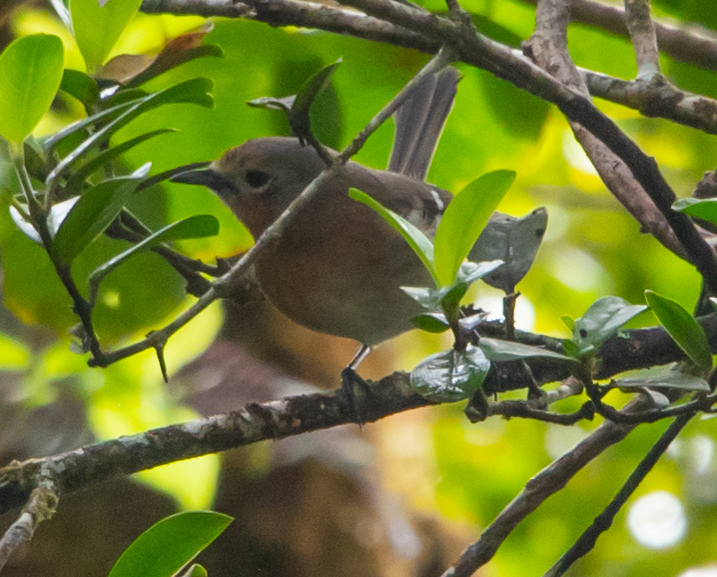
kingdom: Animalia
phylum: Chordata
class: Aves
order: Passeriformes
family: Monarchidae
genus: Chasiempis
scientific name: Chasiempis sclateri
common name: Kauai elepaio
